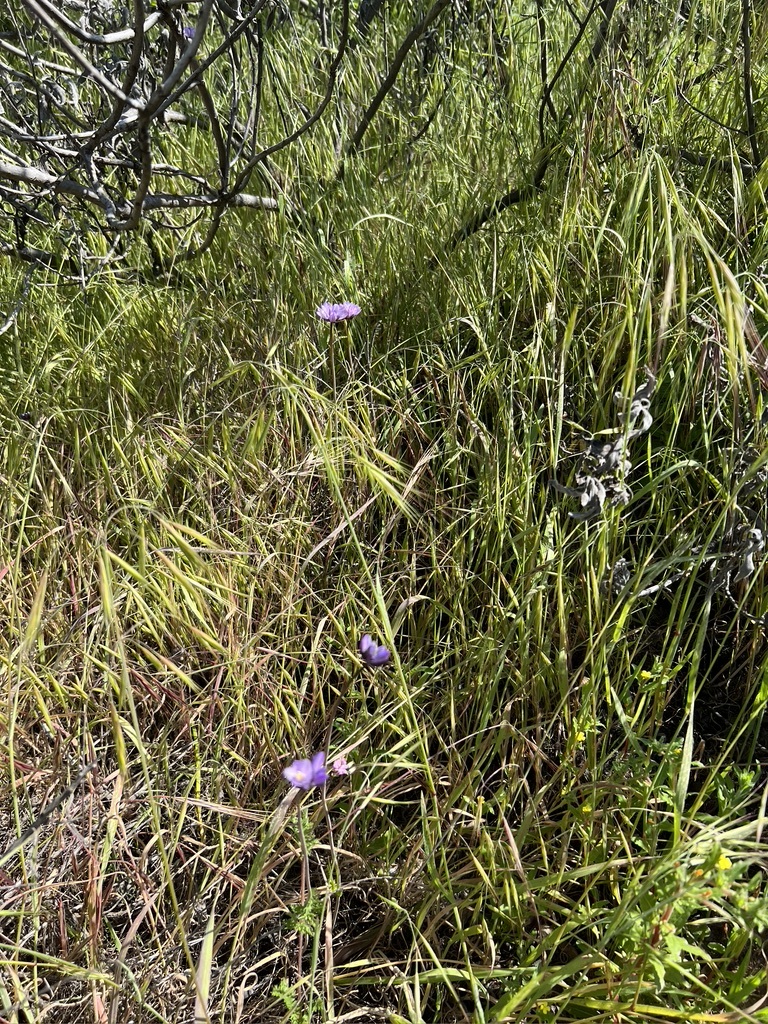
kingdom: Plantae
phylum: Tracheophyta
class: Liliopsida
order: Asparagales
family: Asparagaceae
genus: Dipterostemon
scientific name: Dipterostemon capitatus
